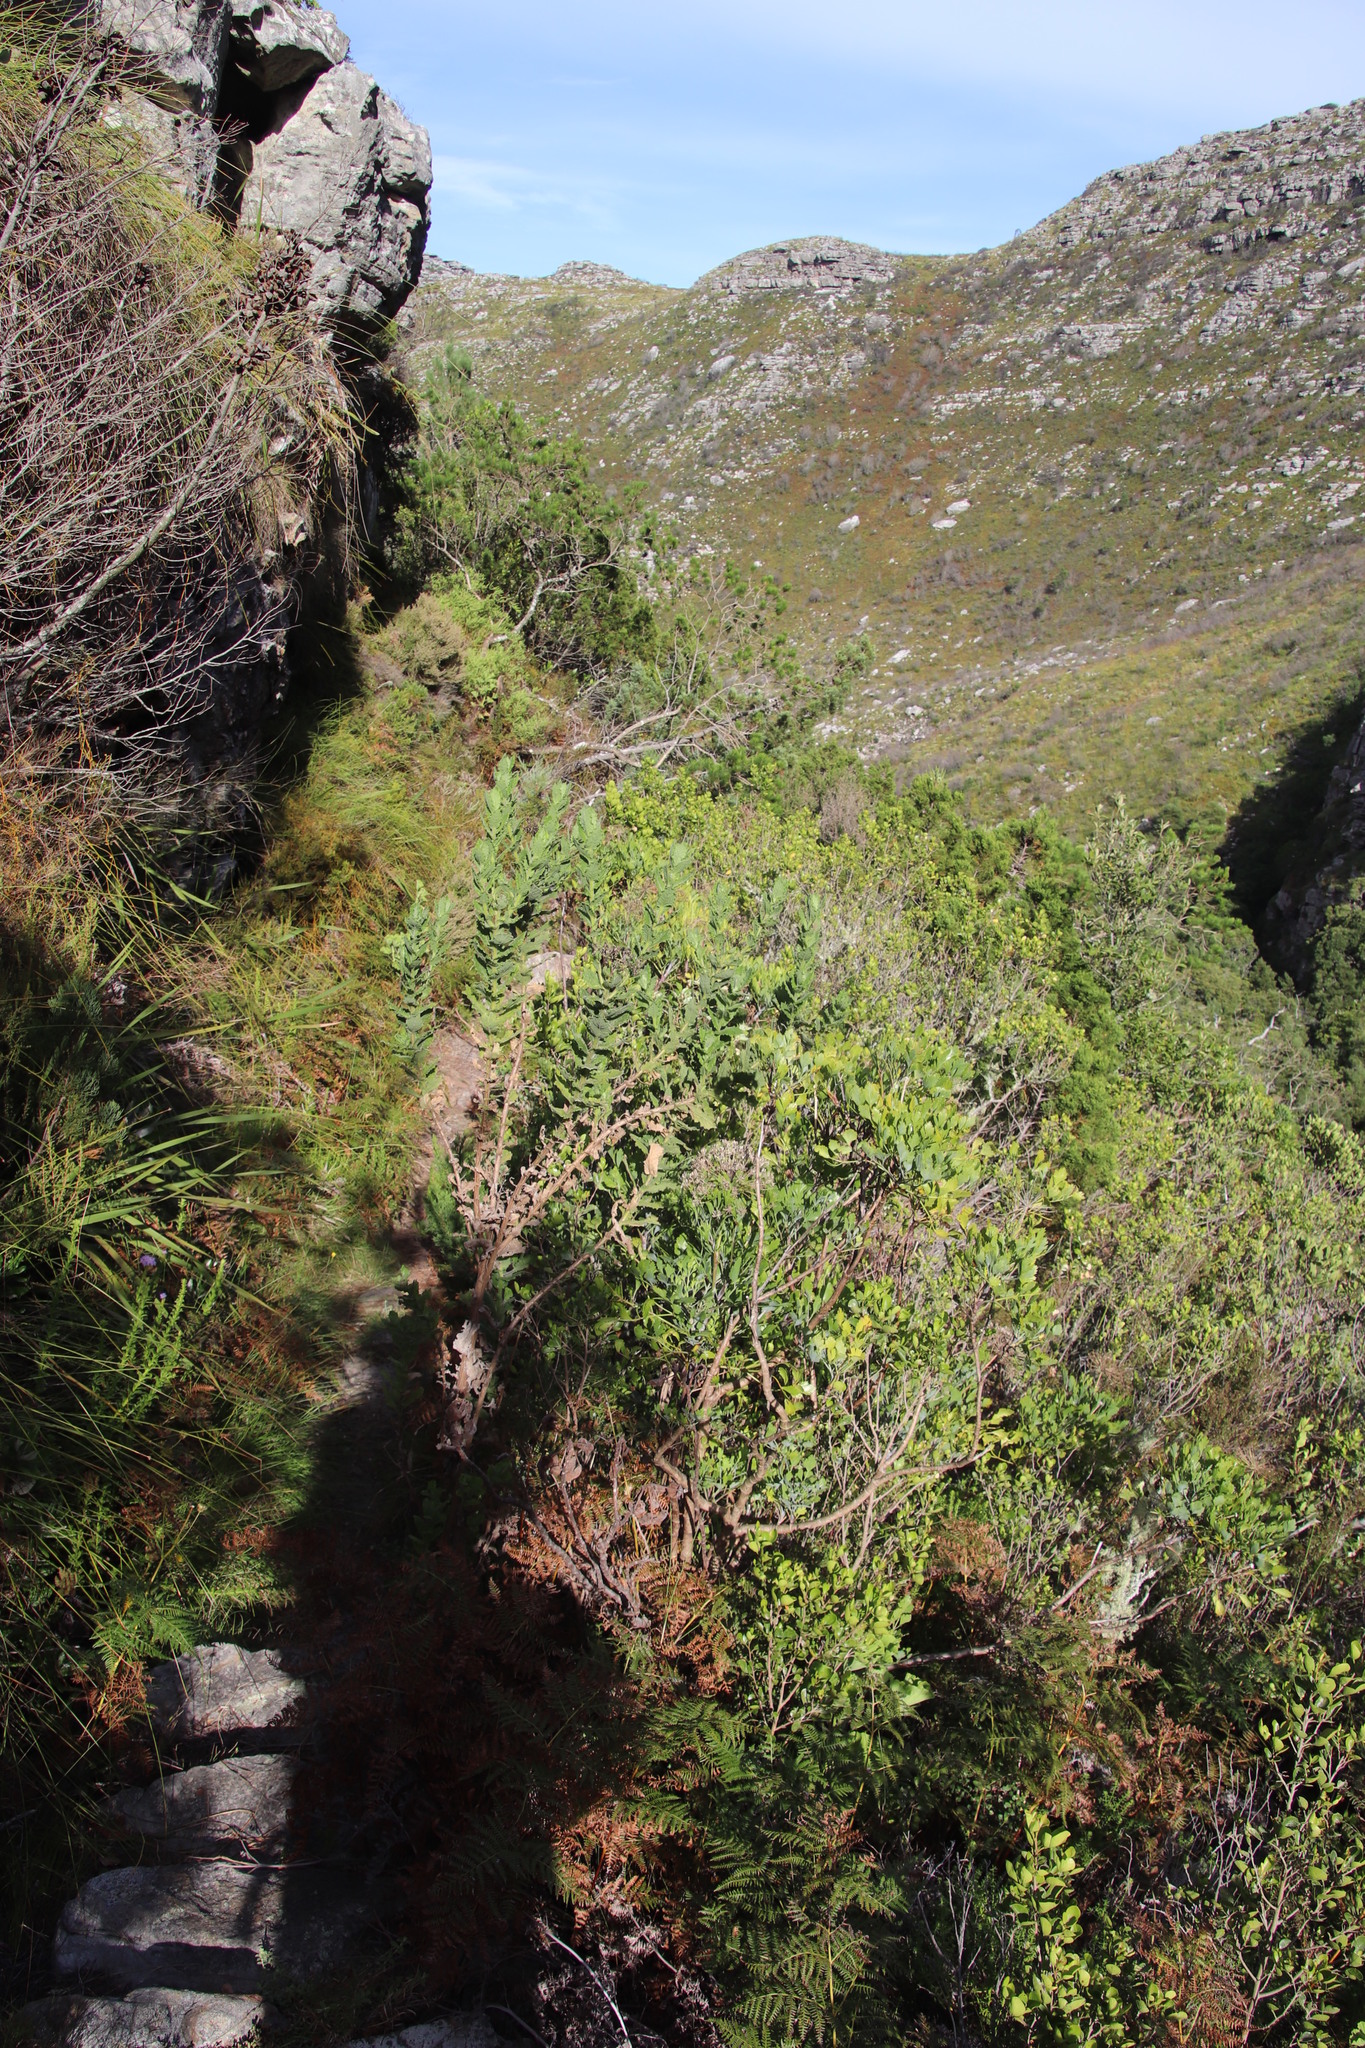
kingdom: Plantae
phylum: Tracheophyta
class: Magnoliopsida
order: Asterales
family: Asteraceae
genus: Senecio
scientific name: Senecio rigidus
